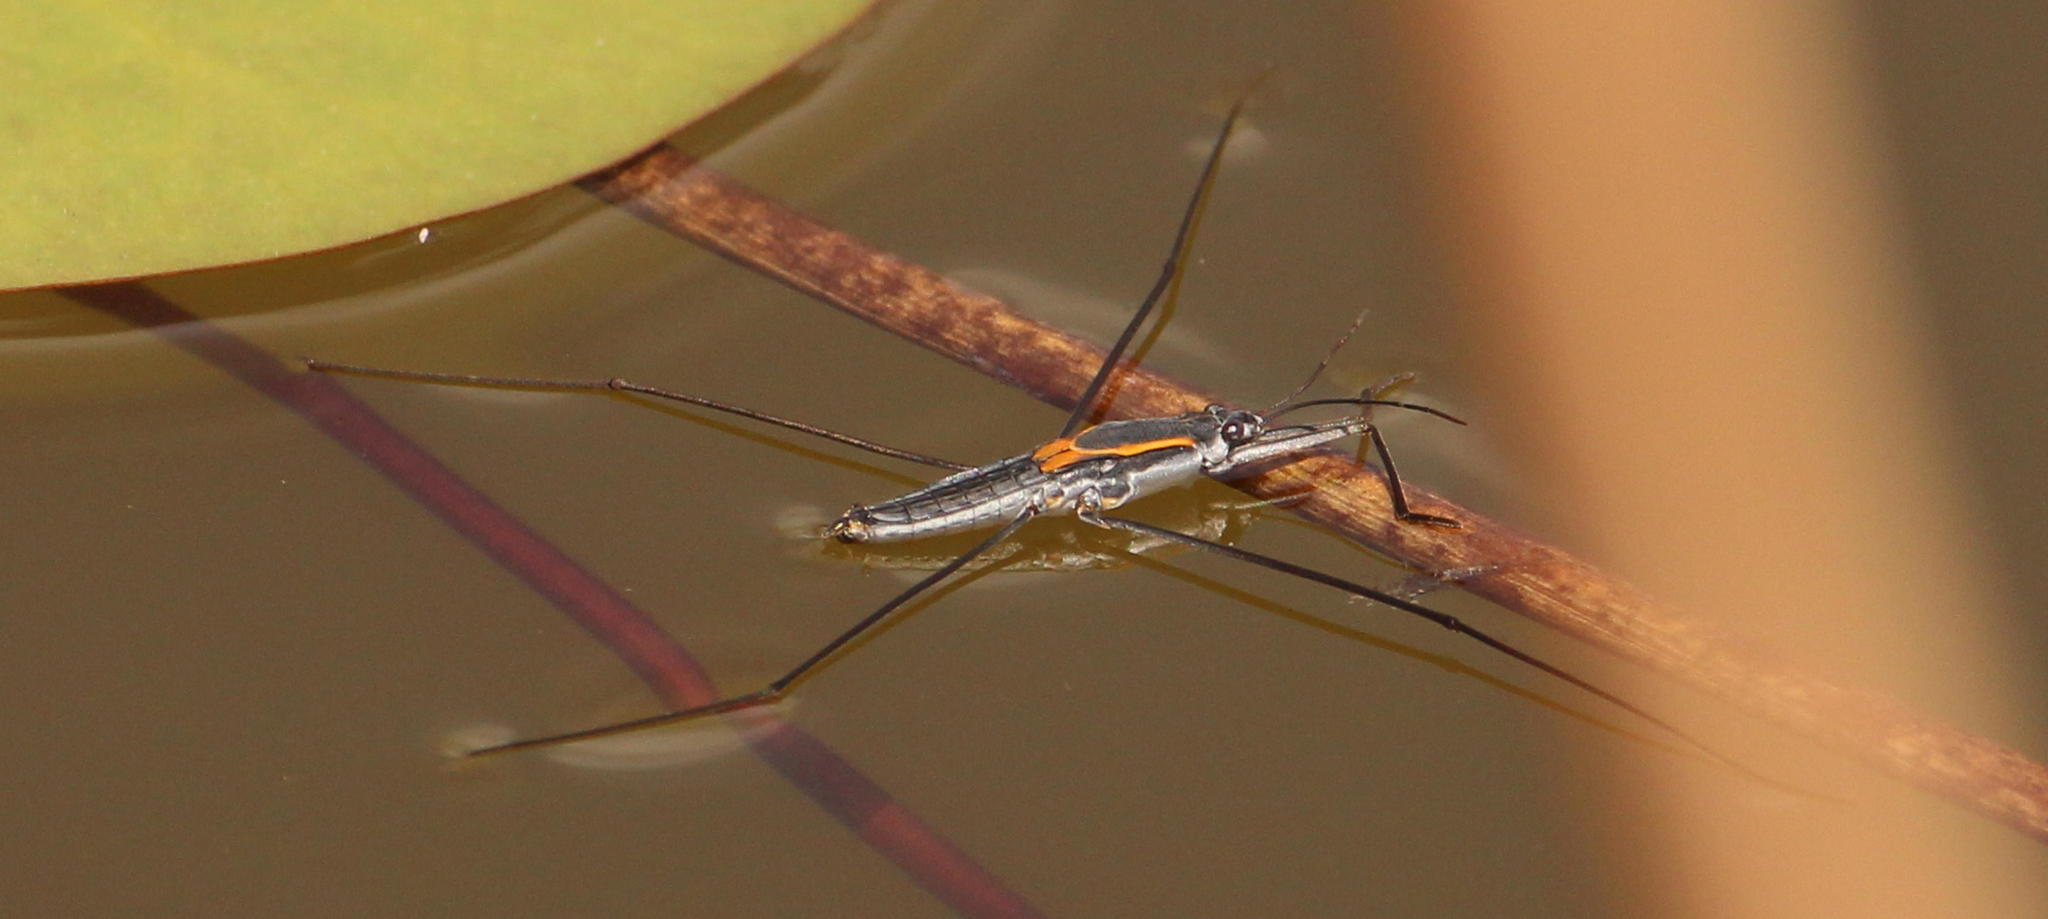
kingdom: Animalia
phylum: Arthropoda
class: Insecta
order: Hemiptera
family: Gerridae
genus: Aquarius
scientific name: Aquarius distanti
